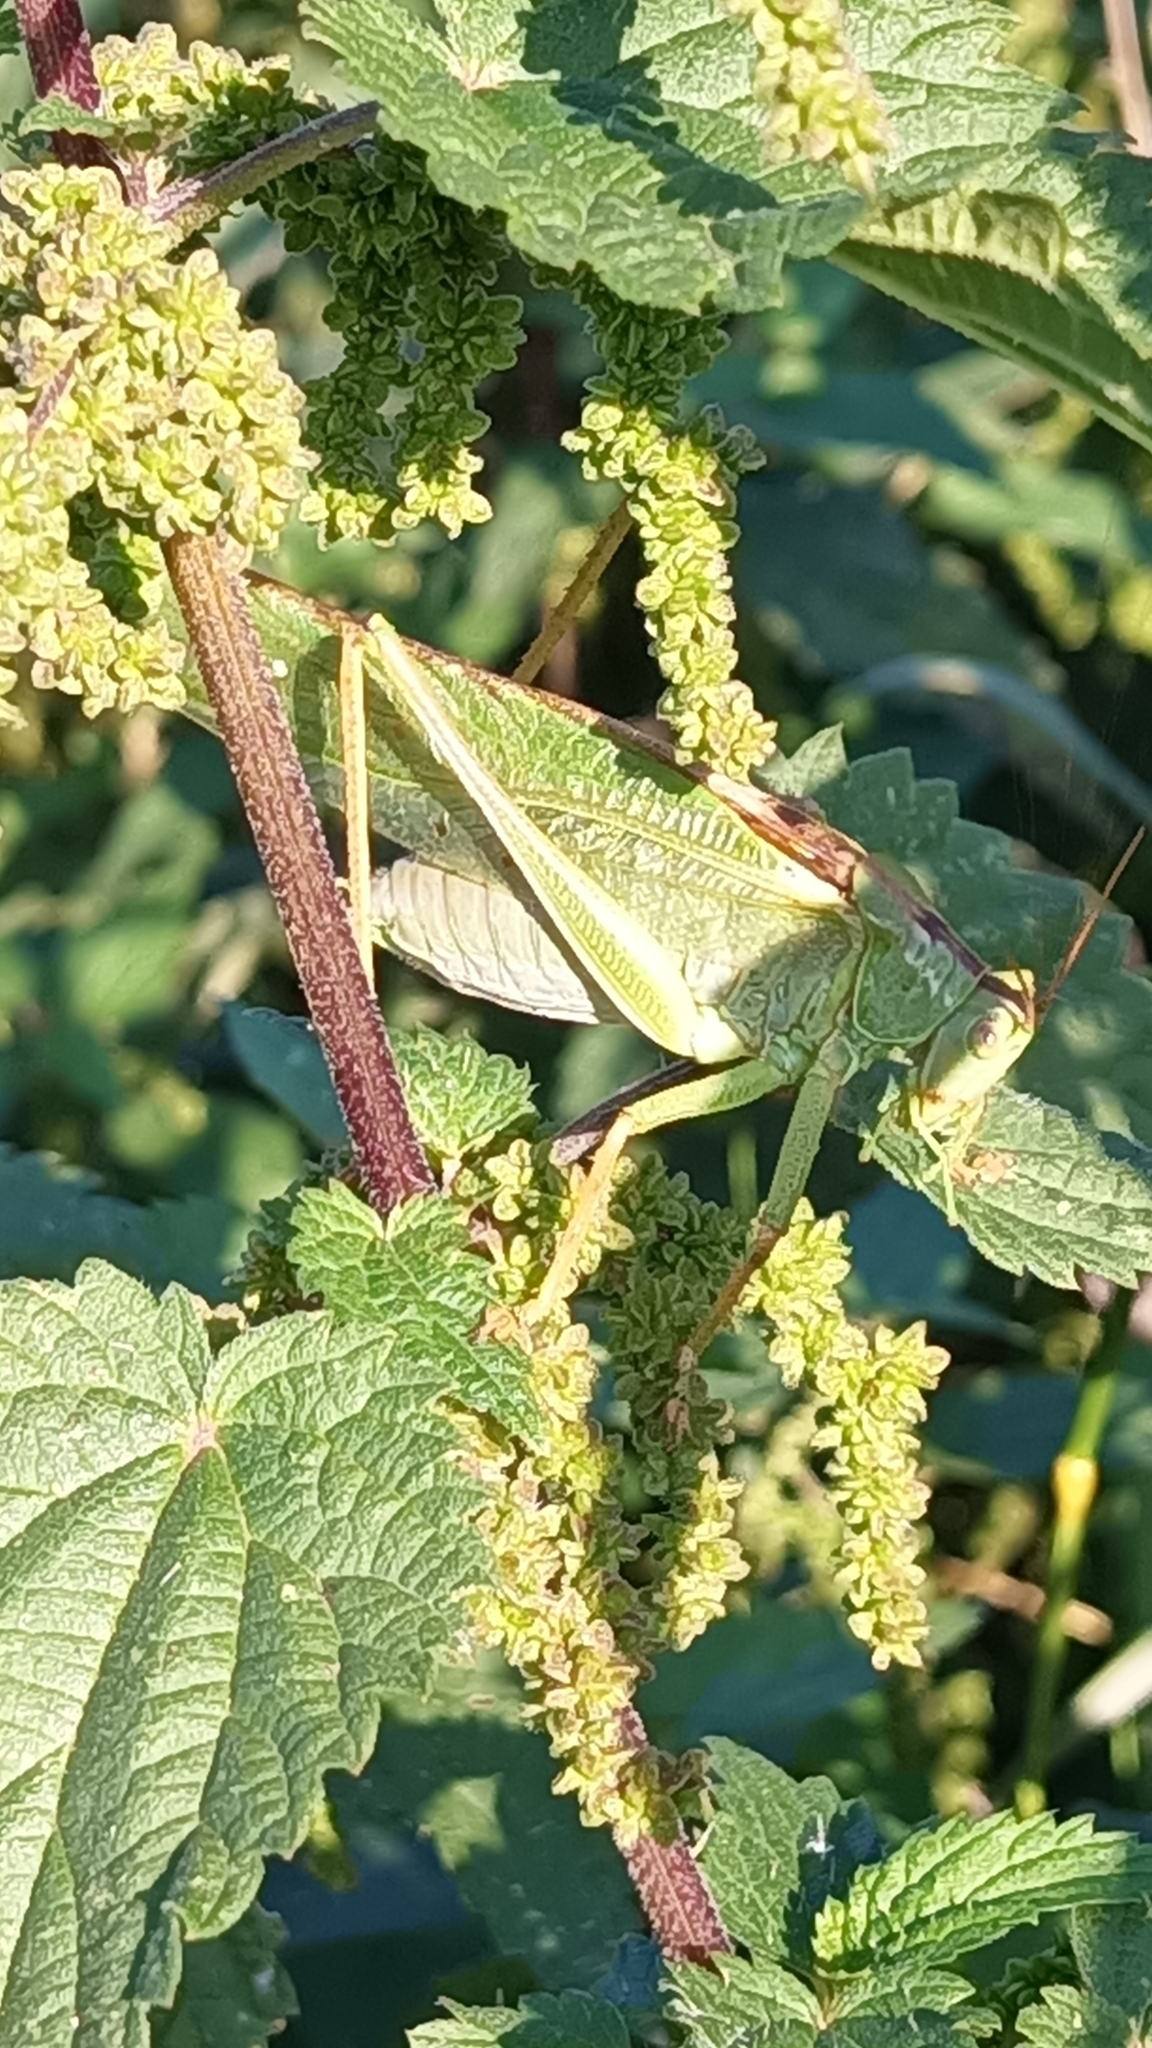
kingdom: Animalia
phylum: Arthropoda
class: Insecta
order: Orthoptera
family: Tettigoniidae
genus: Tettigonia
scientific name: Tettigonia viridissima
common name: Great green bush-cricket
